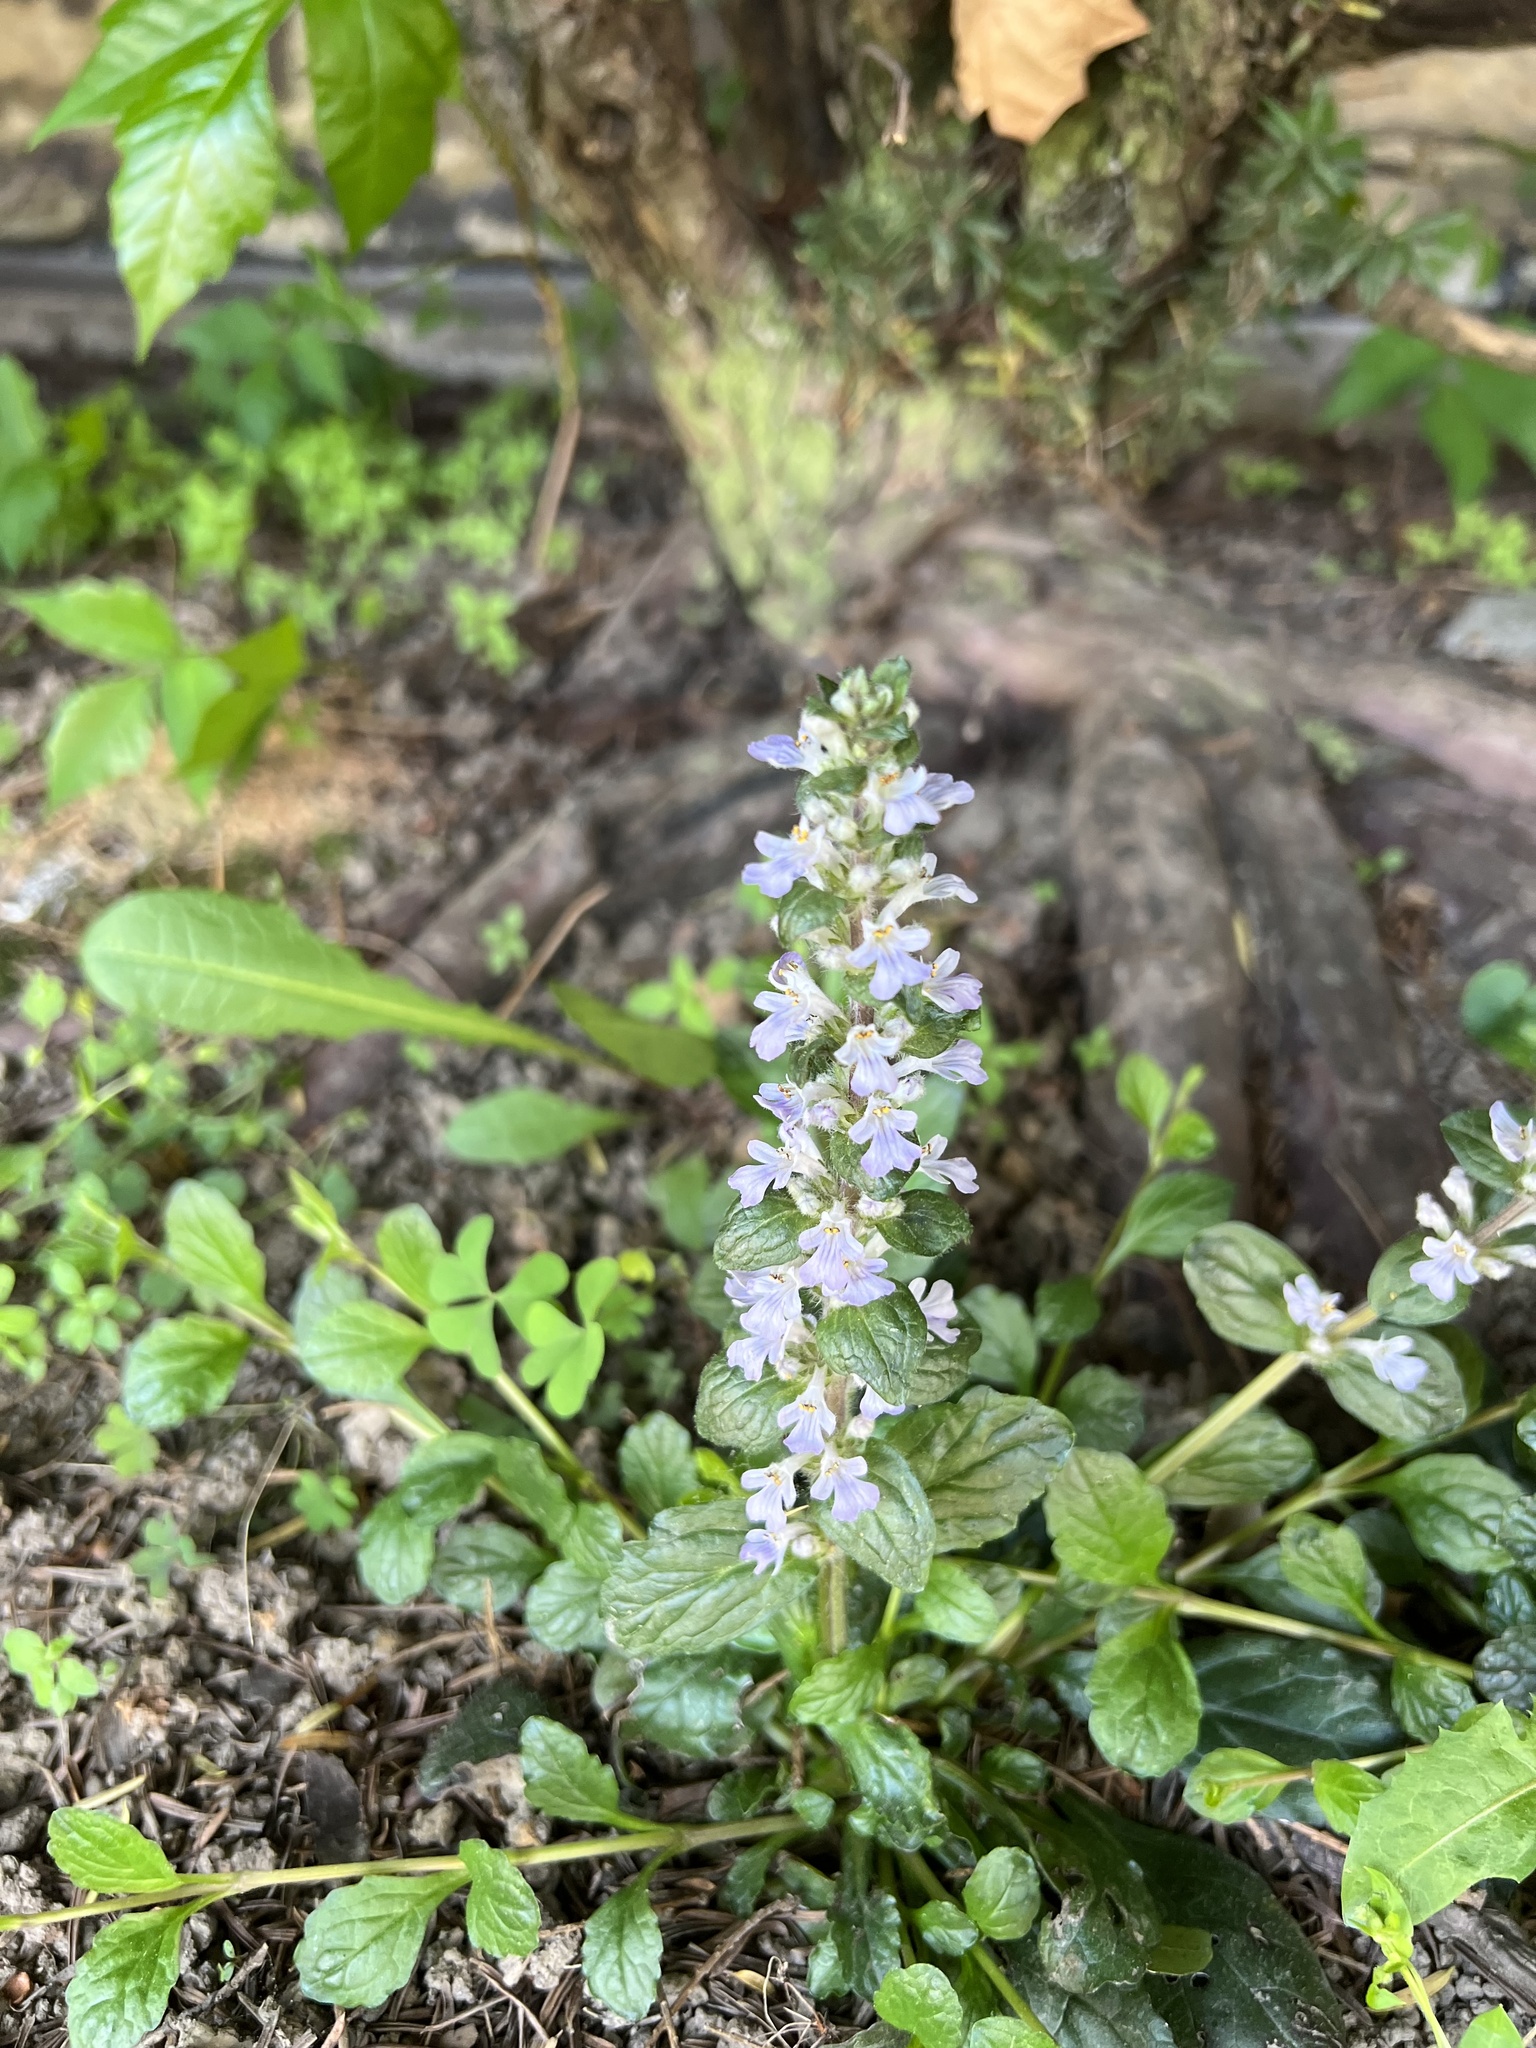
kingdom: Plantae
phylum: Tracheophyta
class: Magnoliopsida
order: Lamiales
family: Lamiaceae
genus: Ajuga
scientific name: Ajuga reptans
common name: Bugle
